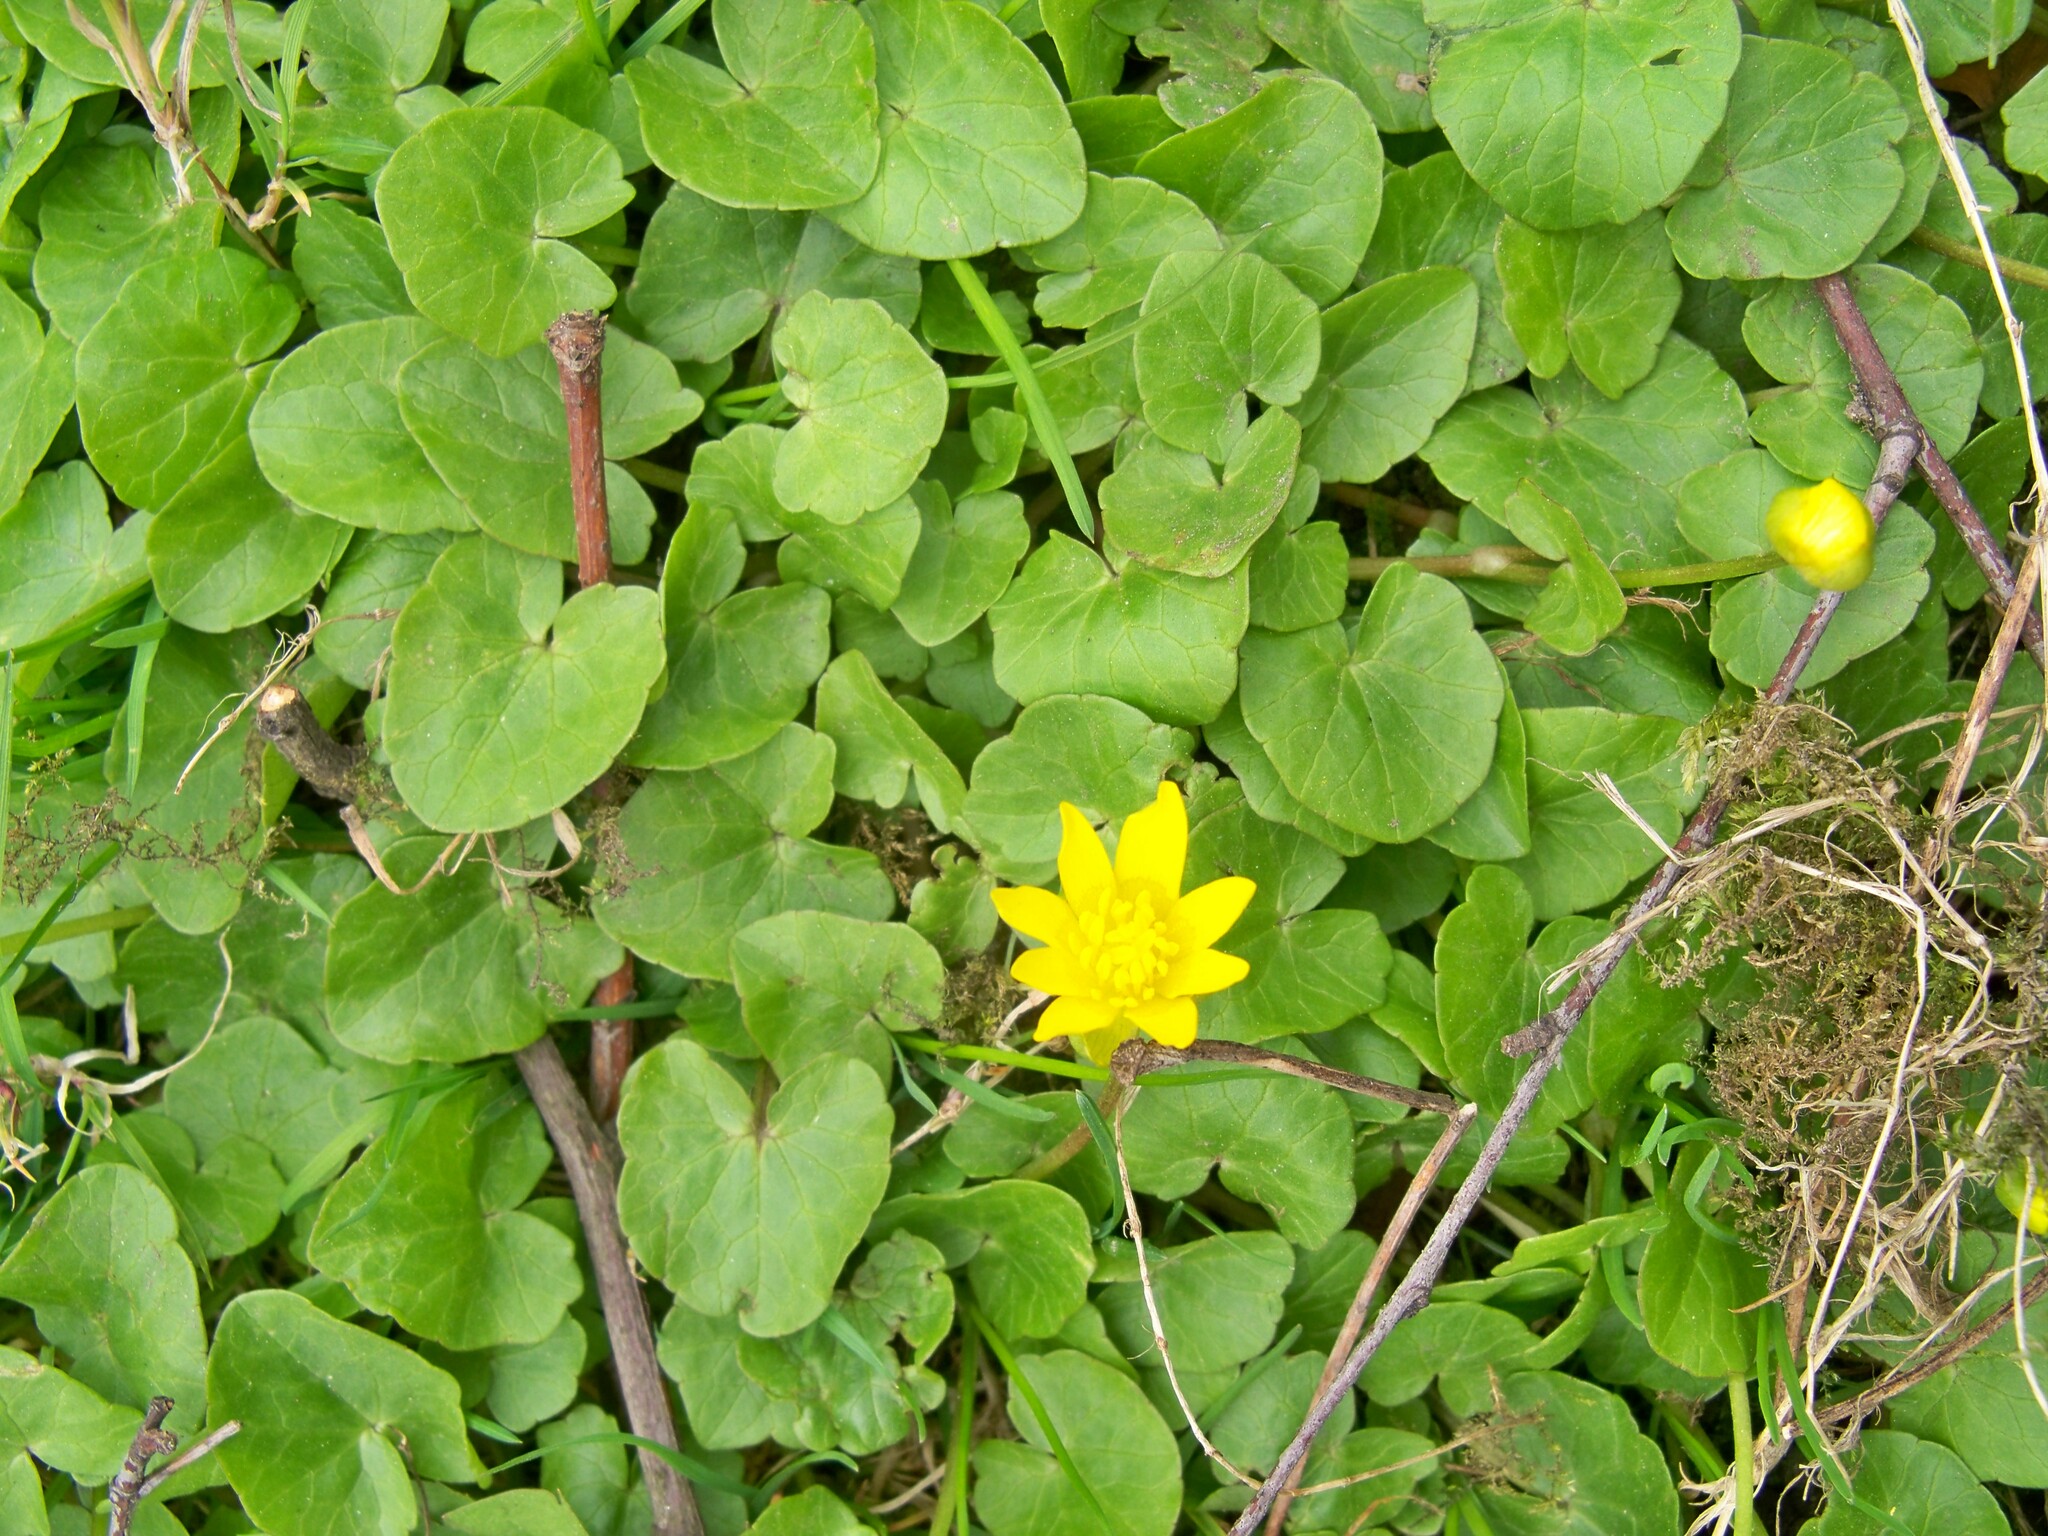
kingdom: Plantae
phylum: Tracheophyta
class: Magnoliopsida
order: Ranunculales
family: Ranunculaceae
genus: Ficaria
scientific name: Ficaria verna
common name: Lesser celandine
